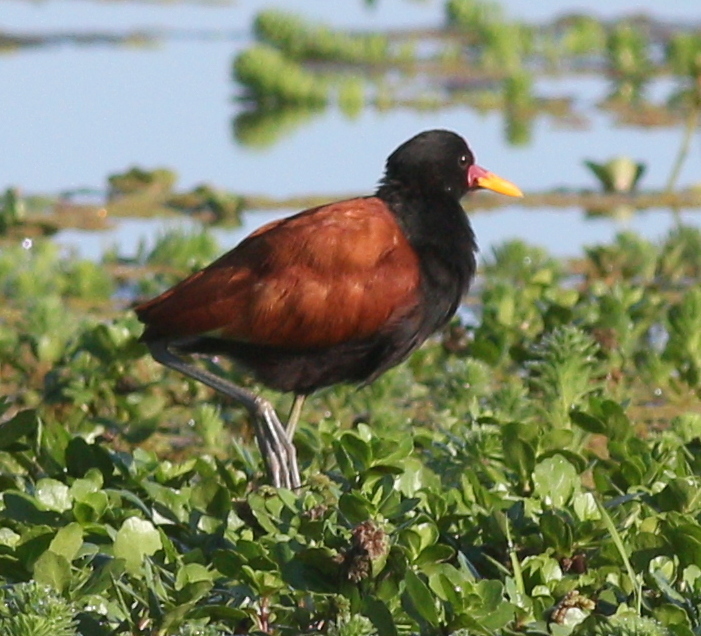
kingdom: Animalia
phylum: Chordata
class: Aves
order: Charadriiformes
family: Jacanidae
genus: Jacana
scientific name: Jacana jacana
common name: Wattled jacana
